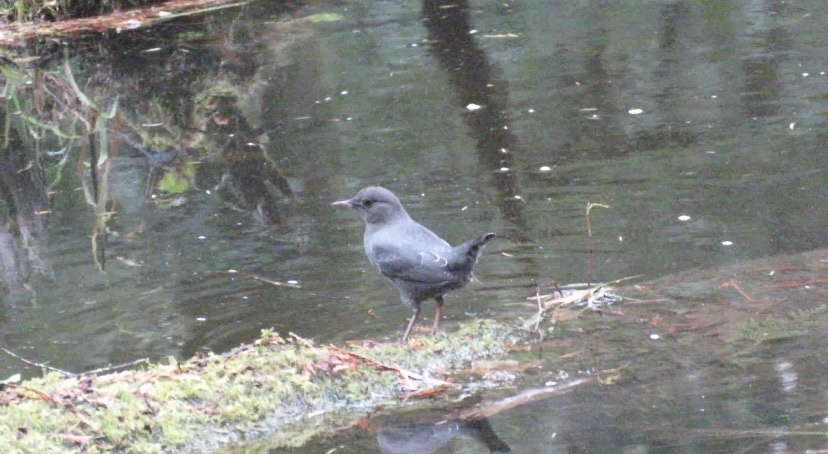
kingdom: Animalia
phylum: Chordata
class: Aves
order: Passeriformes
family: Cinclidae
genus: Cinclus
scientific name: Cinclus mexicanus
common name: American dipper
